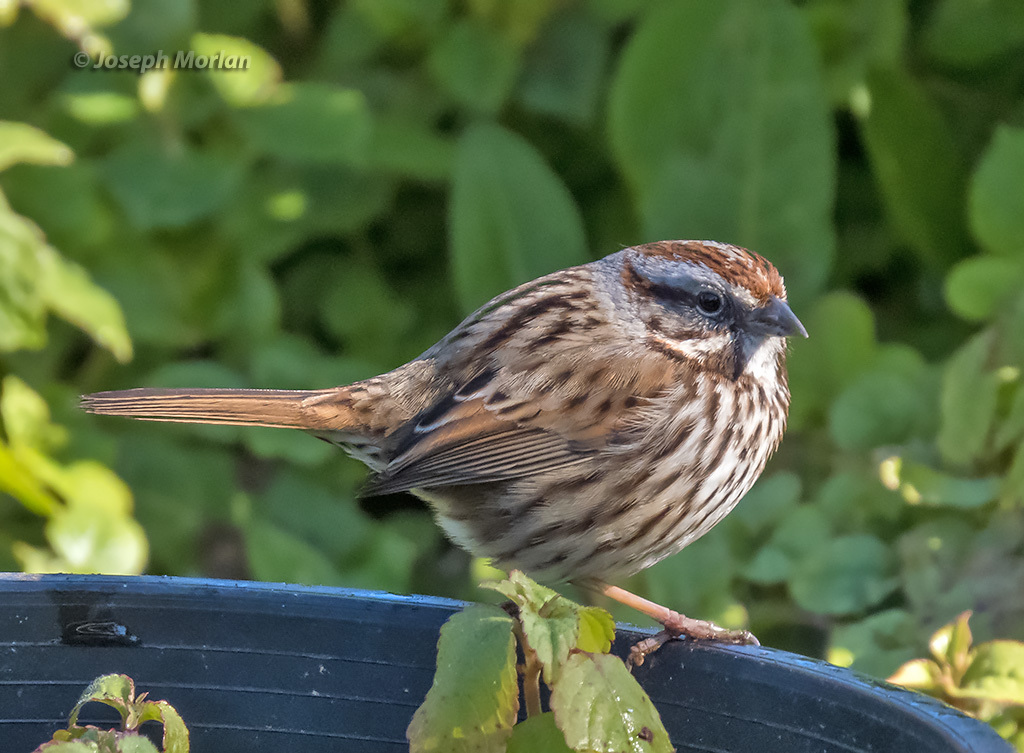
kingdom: Animalia
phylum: Chordata
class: Aves
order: Passeriformes
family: Passerellidae
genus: Melospiza
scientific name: Melospiza melodia
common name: Song sparrow
